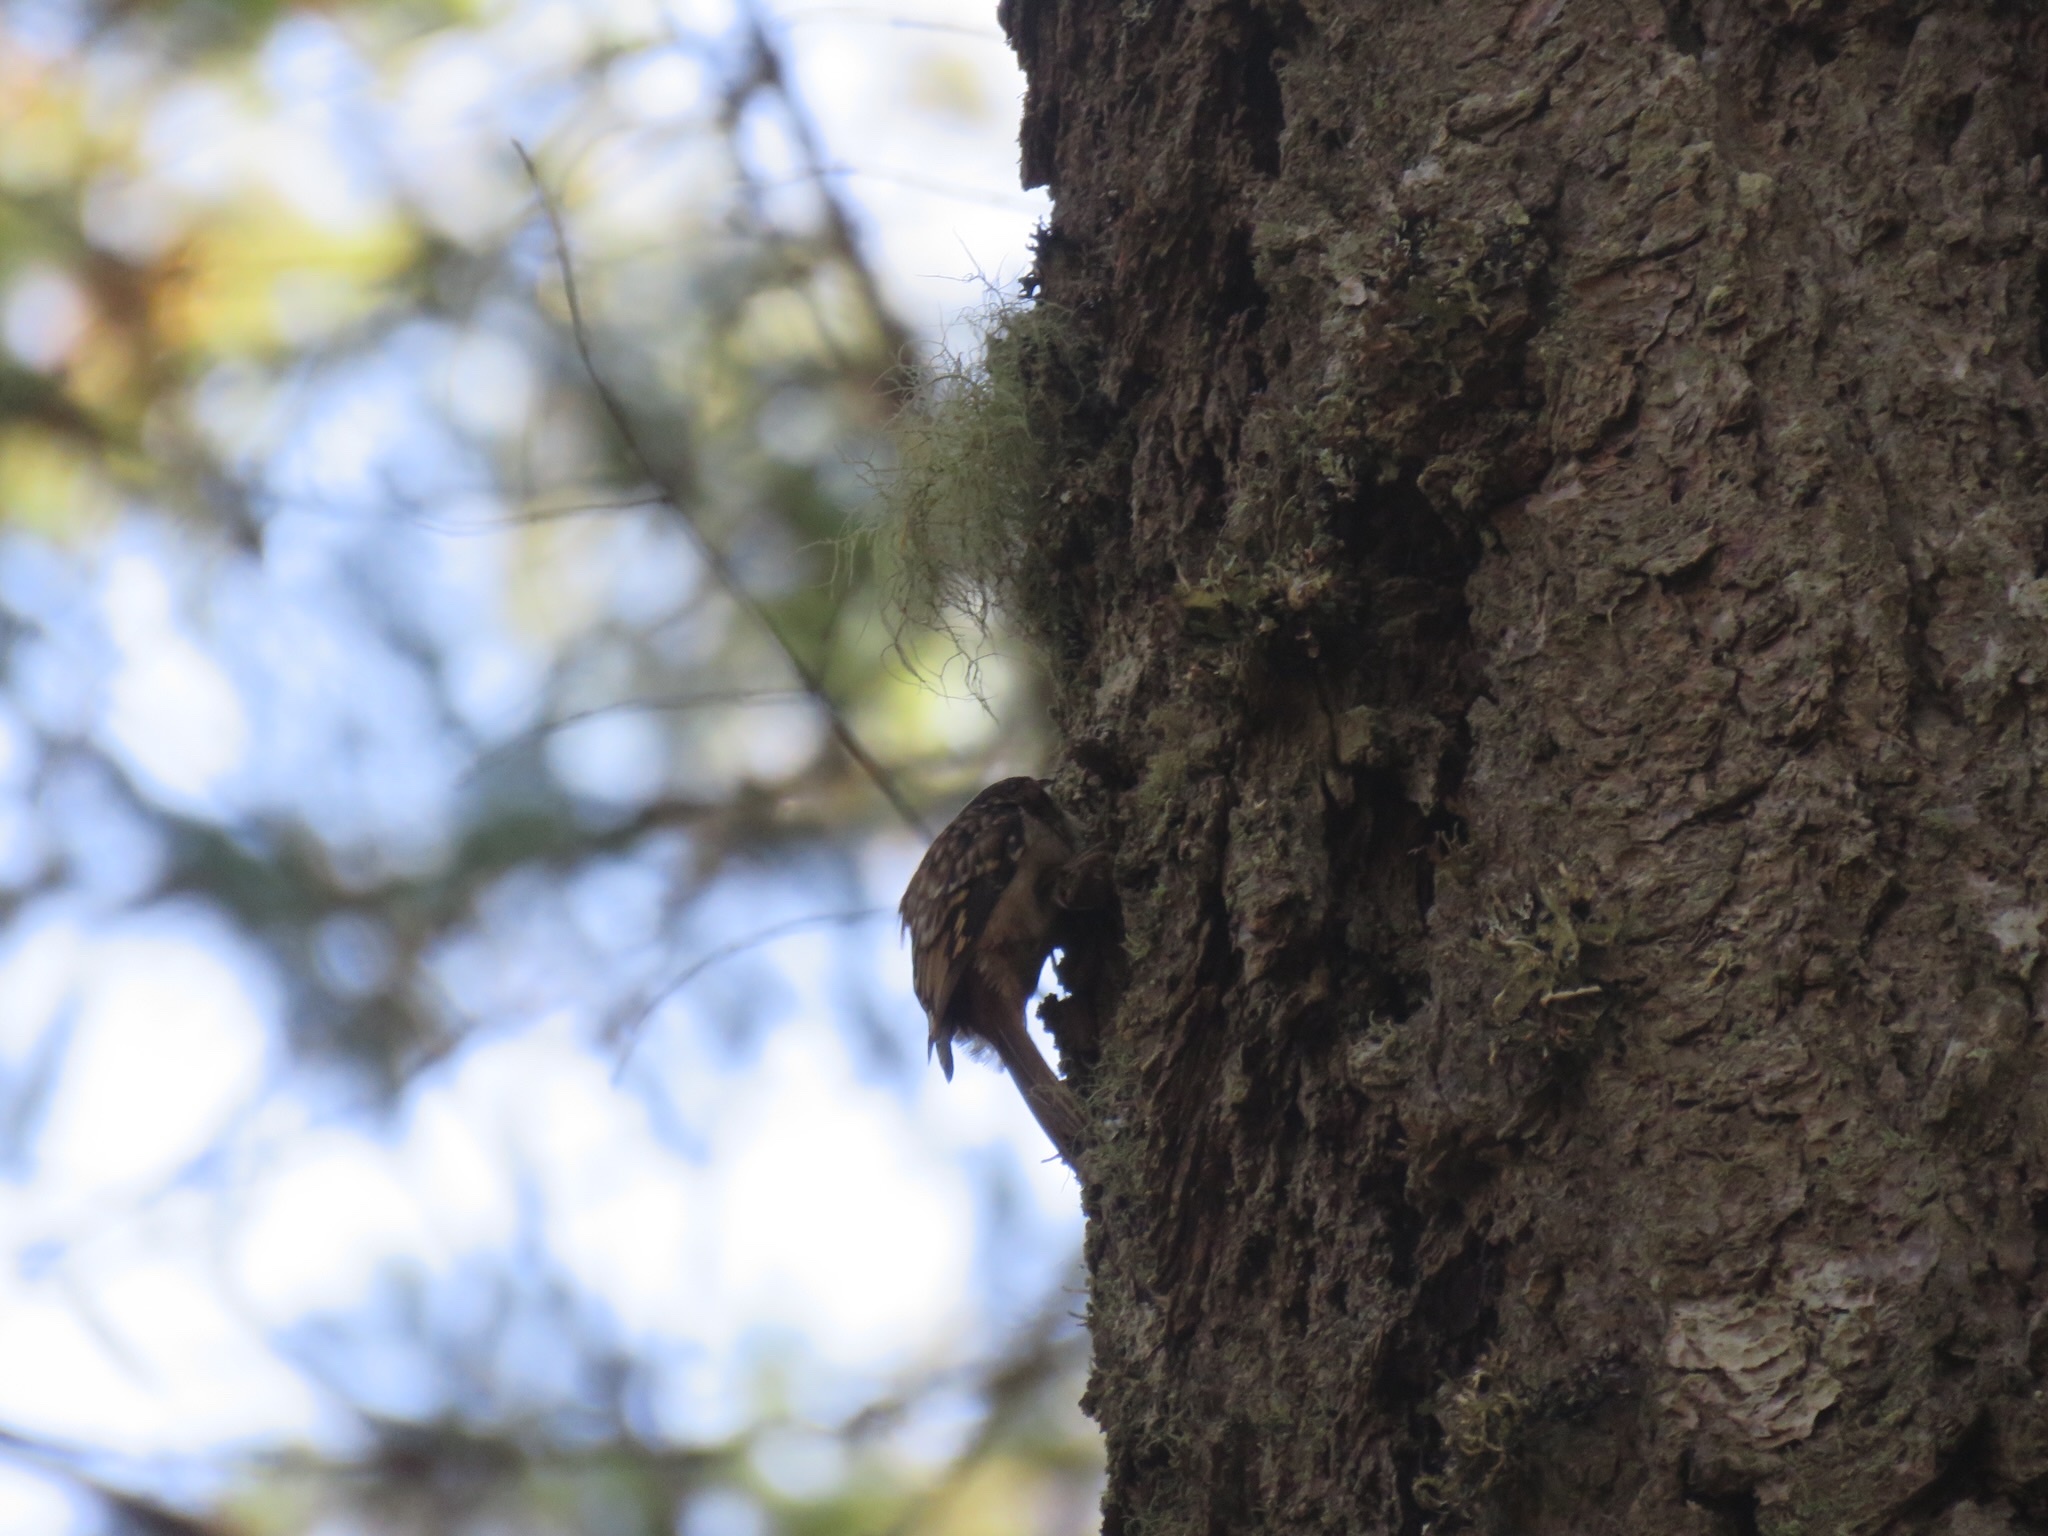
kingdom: Animalia
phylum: Chordata
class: Aves
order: Passeriformes
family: Certhiidae
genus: Certhia
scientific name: Certhia americana
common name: Brown creeper
